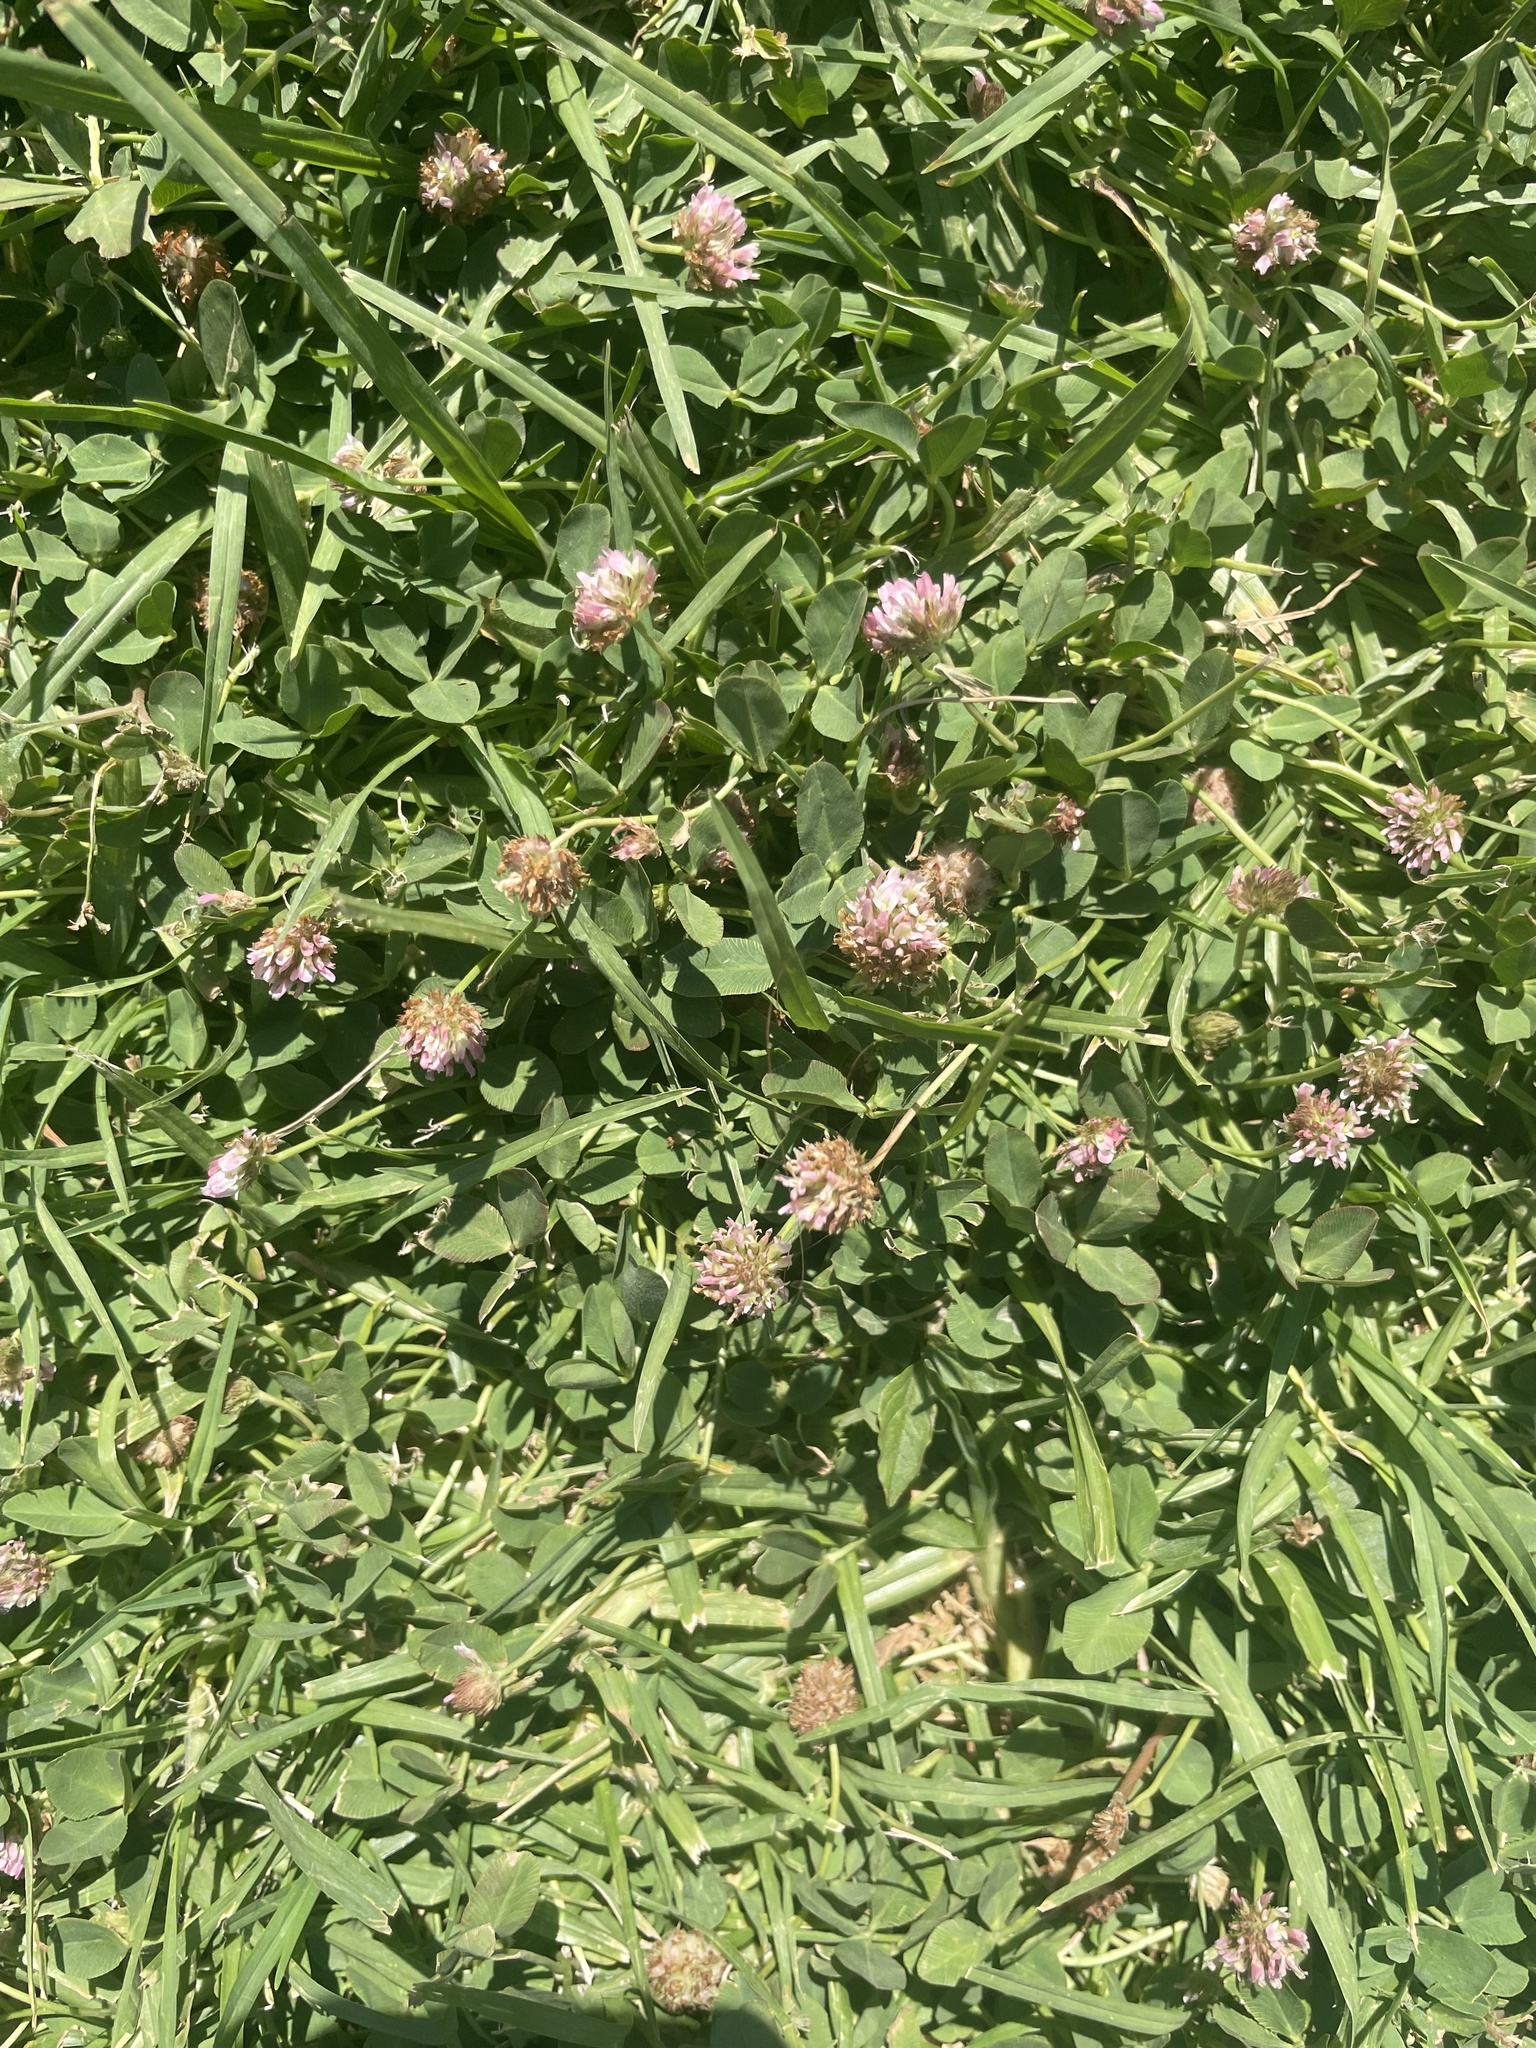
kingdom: Plantae
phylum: Tracheophyta
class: Magnoliopsida
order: Fabales
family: Fabaceae
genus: Trifolium
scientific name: Trifolium fragiferum
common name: Strawberry clover
